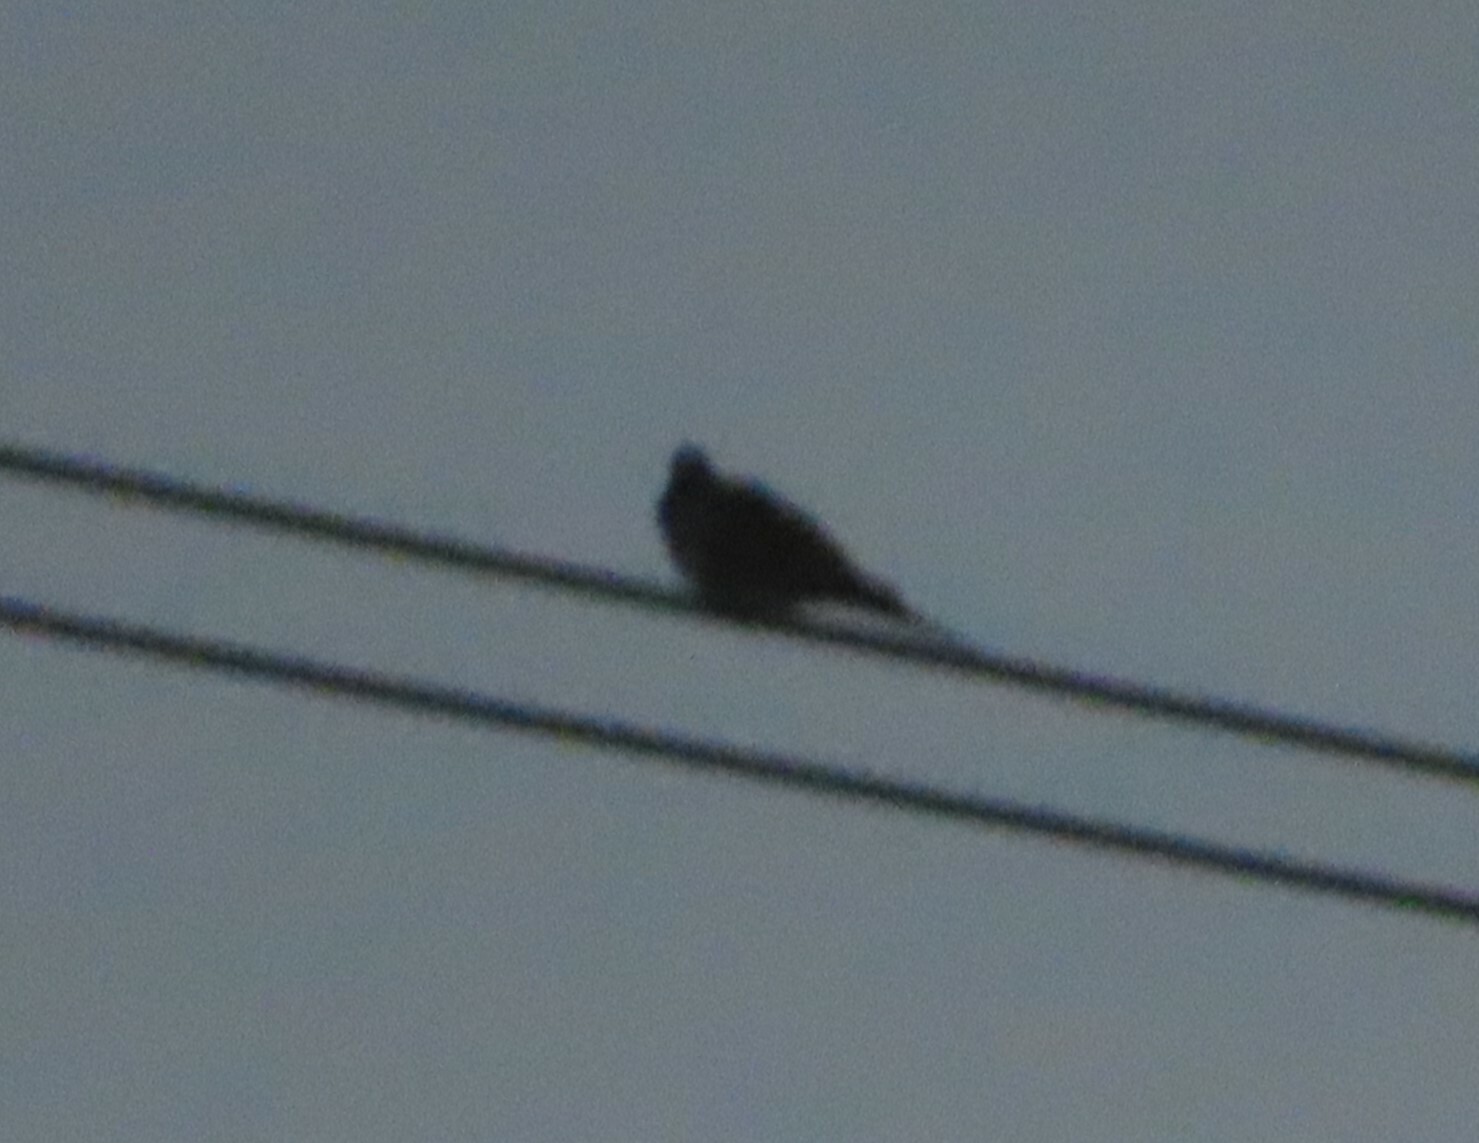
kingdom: Animalia
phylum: Chordata
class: Aves
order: Columbiformes
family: Columbidae
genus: Zenaida
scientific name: Zenaida macroura
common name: Mourning dove
